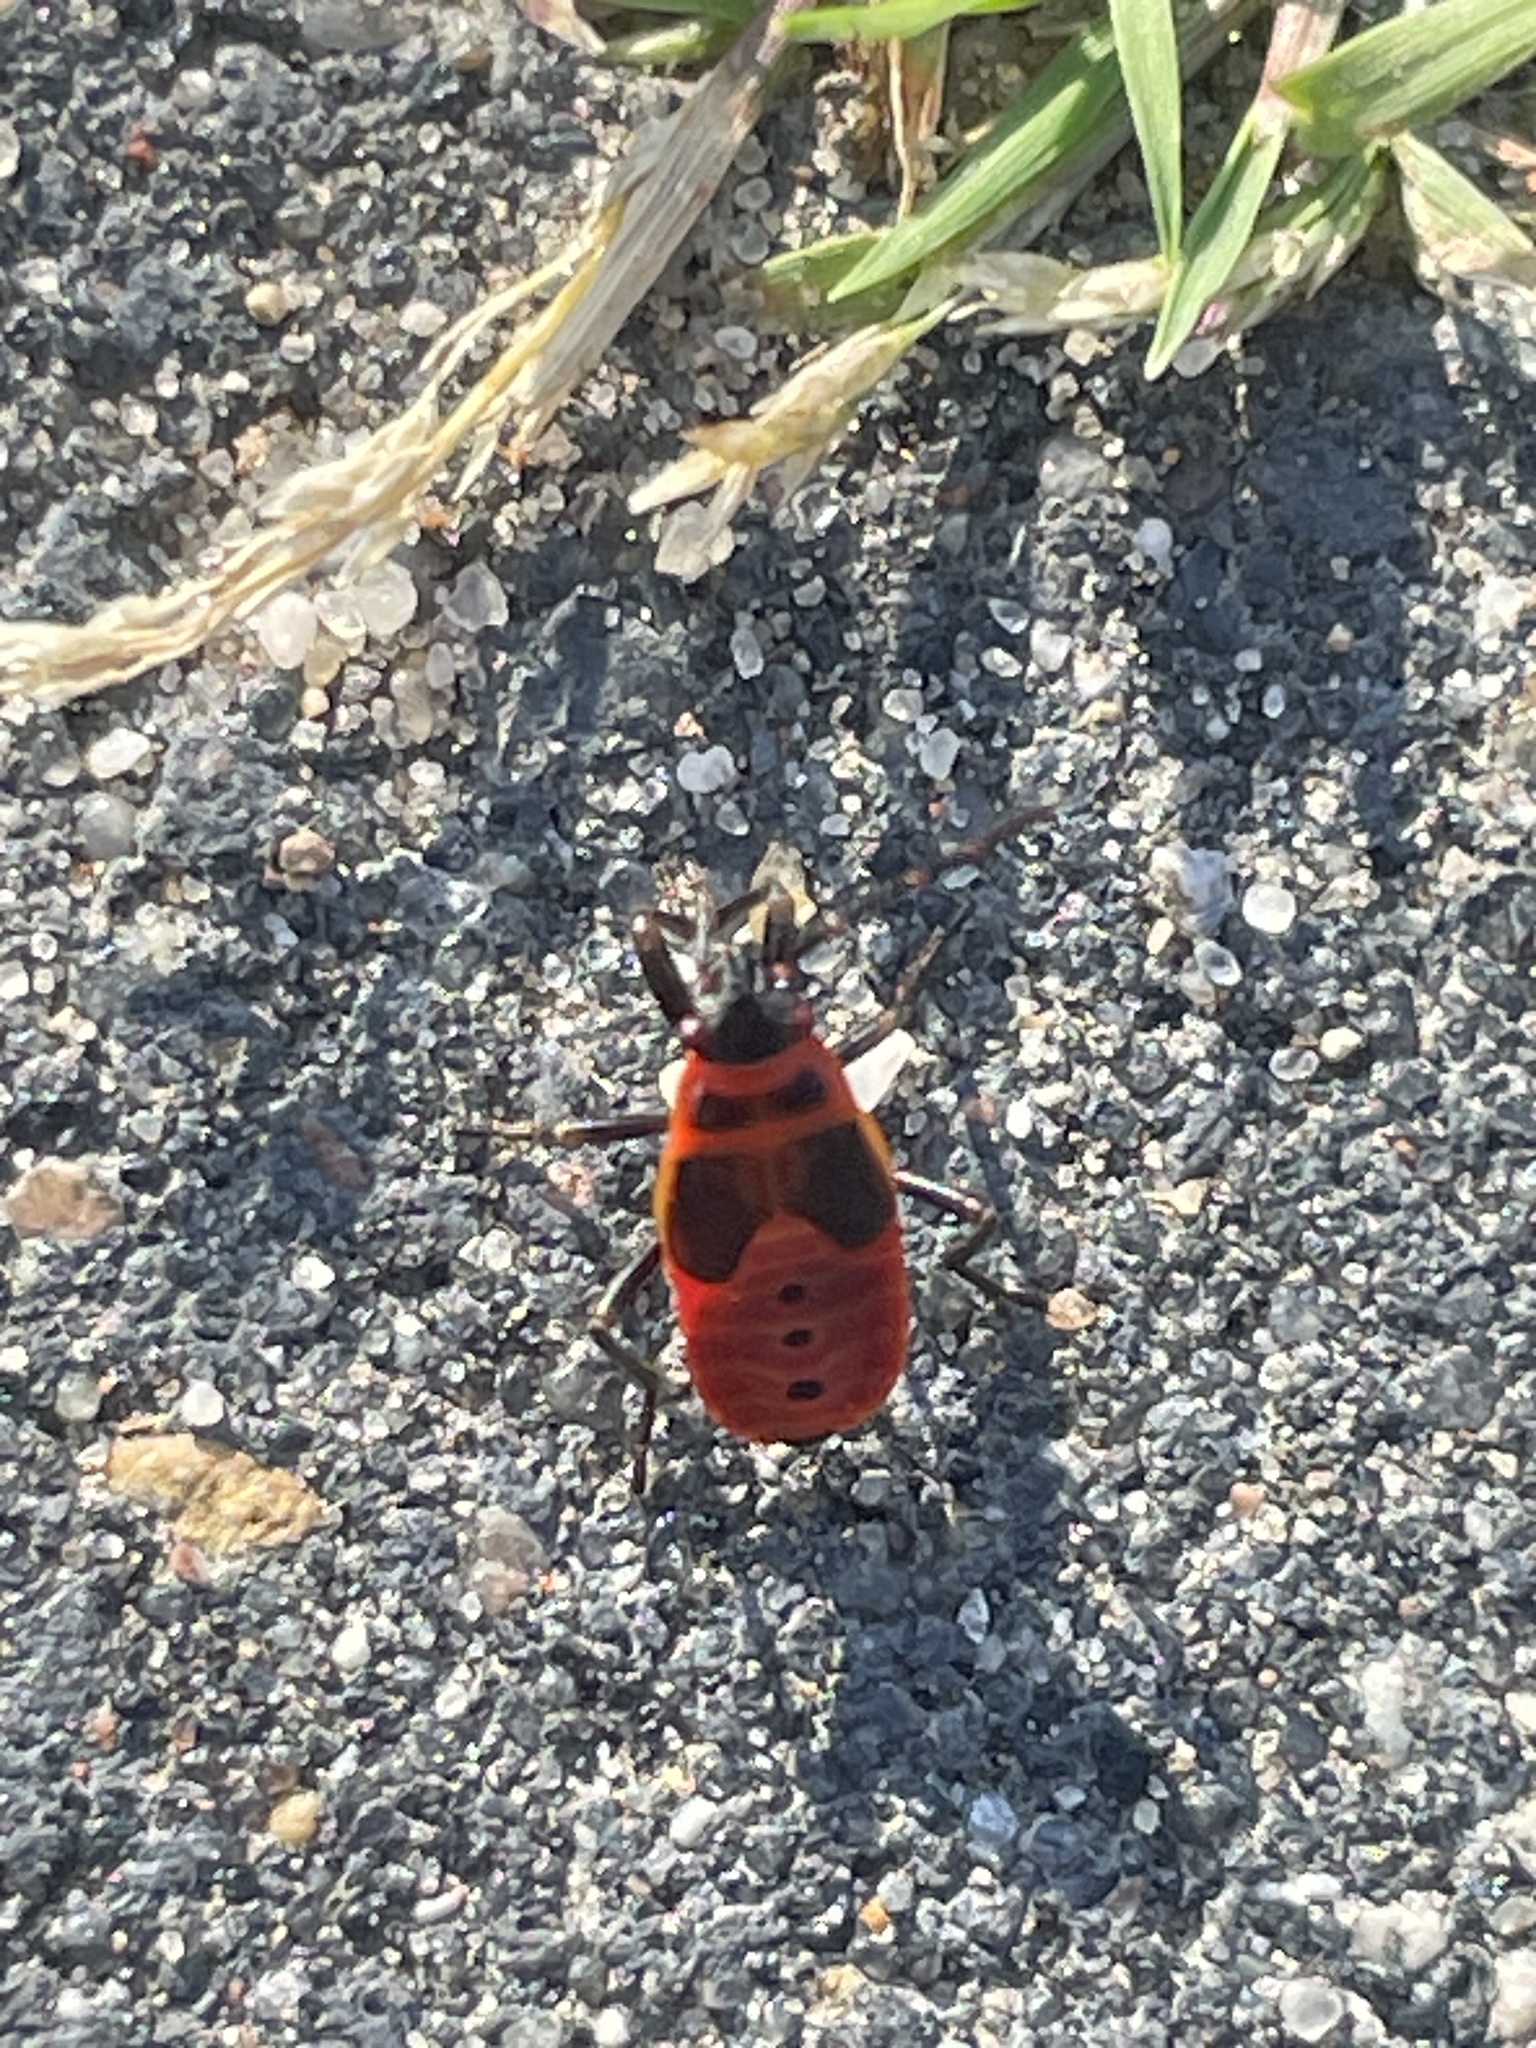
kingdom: Animalia
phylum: Arthropoda
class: Insecta
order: Hemiptera
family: Pyrrhocoridae
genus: Pyrrhocoris
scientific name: Pyrrhocoris apterus
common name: Firebug
